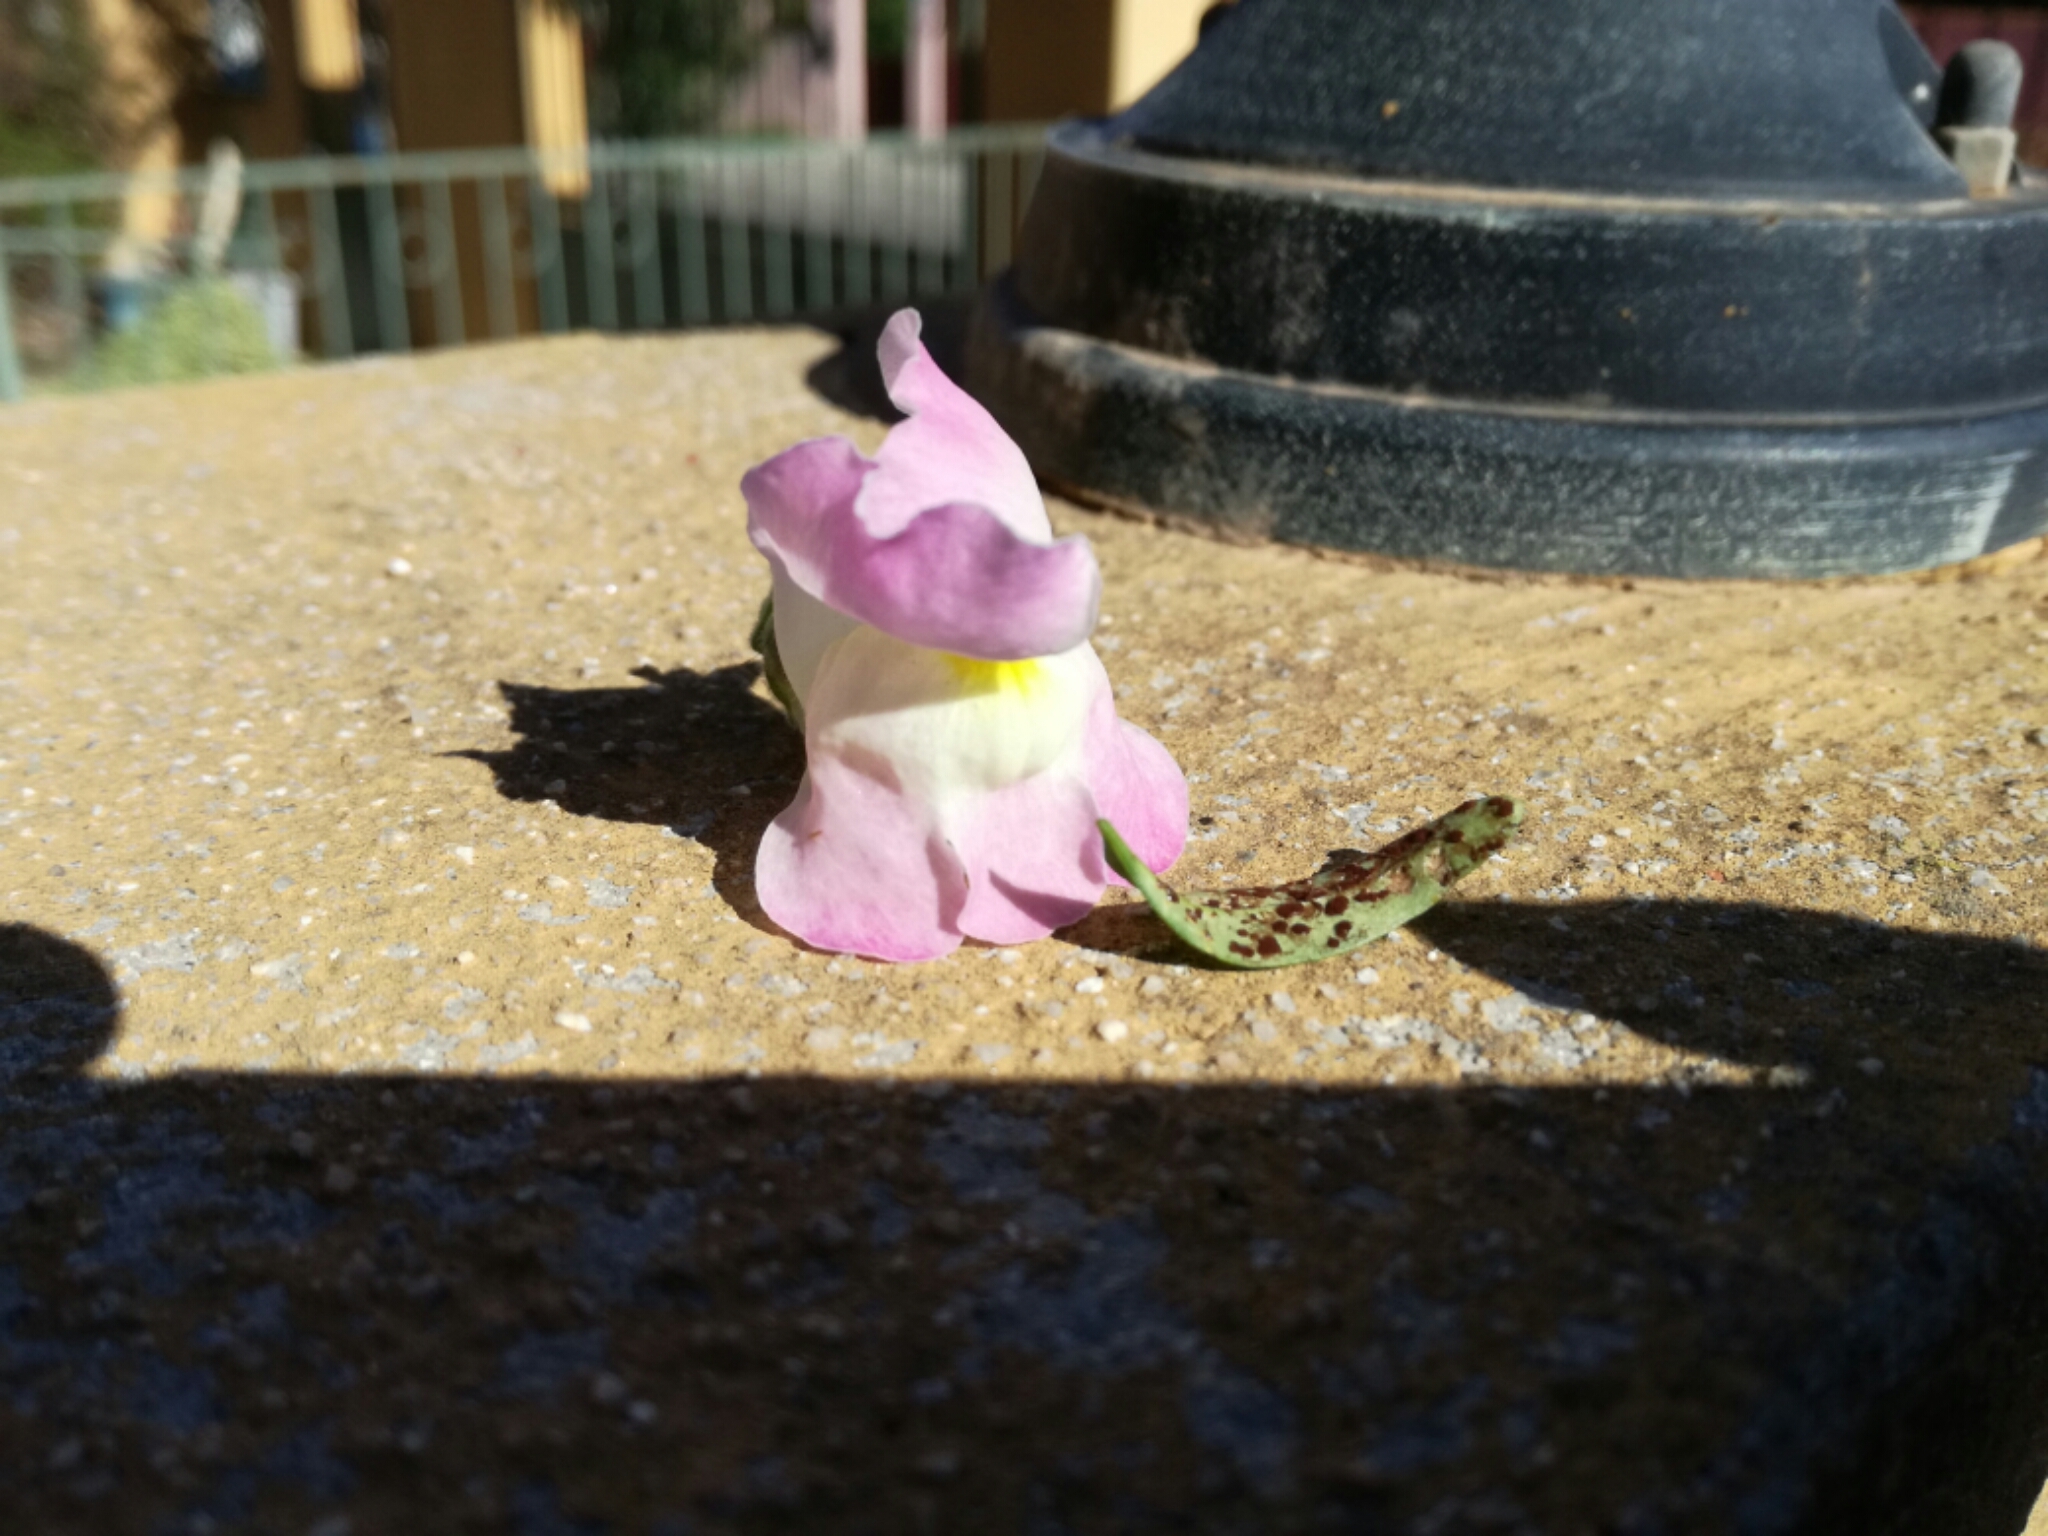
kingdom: Fungi
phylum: Basidiomycota
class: Pucciniomycetes
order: Pucciniales
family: Pucciniaceae
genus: Puccinia
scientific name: Puccinia antirrhini
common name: Antirrhinum rust
